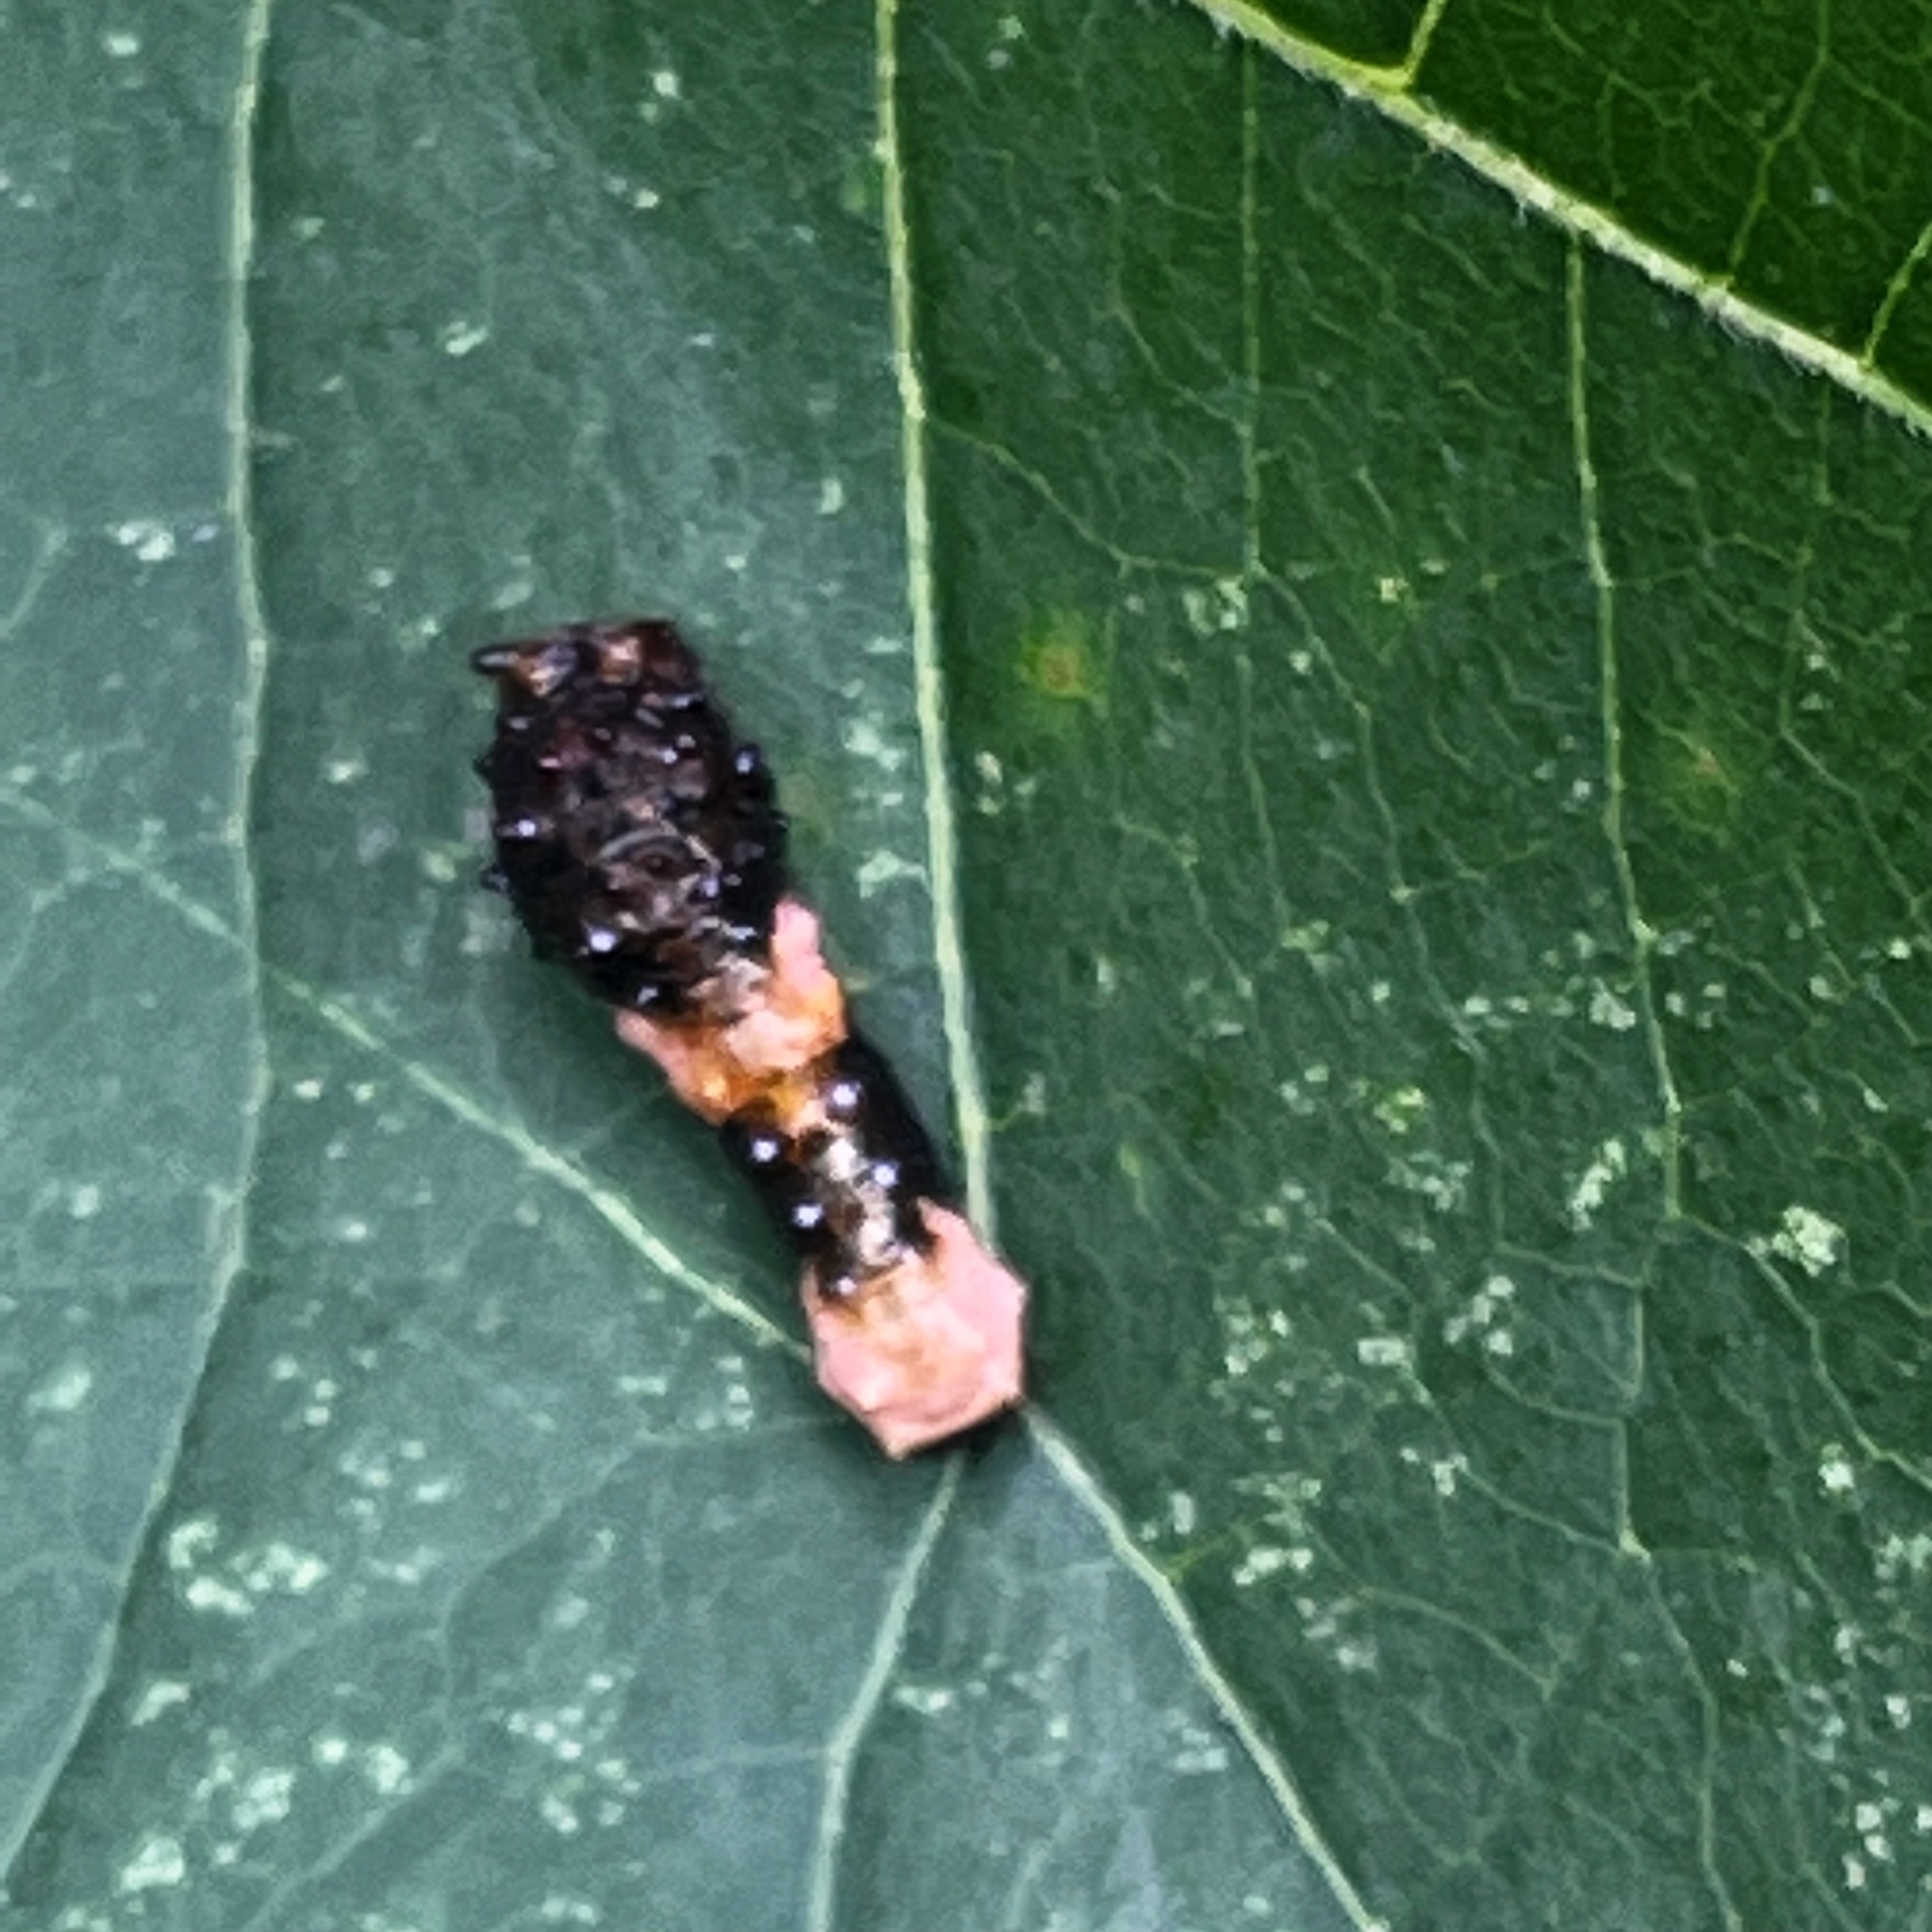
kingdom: Animalia
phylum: Arthropoda
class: Insecta
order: Lepidoptera
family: Papilionidae
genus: Papilio
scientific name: Papilio cresphontes
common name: Giant swallowtail
